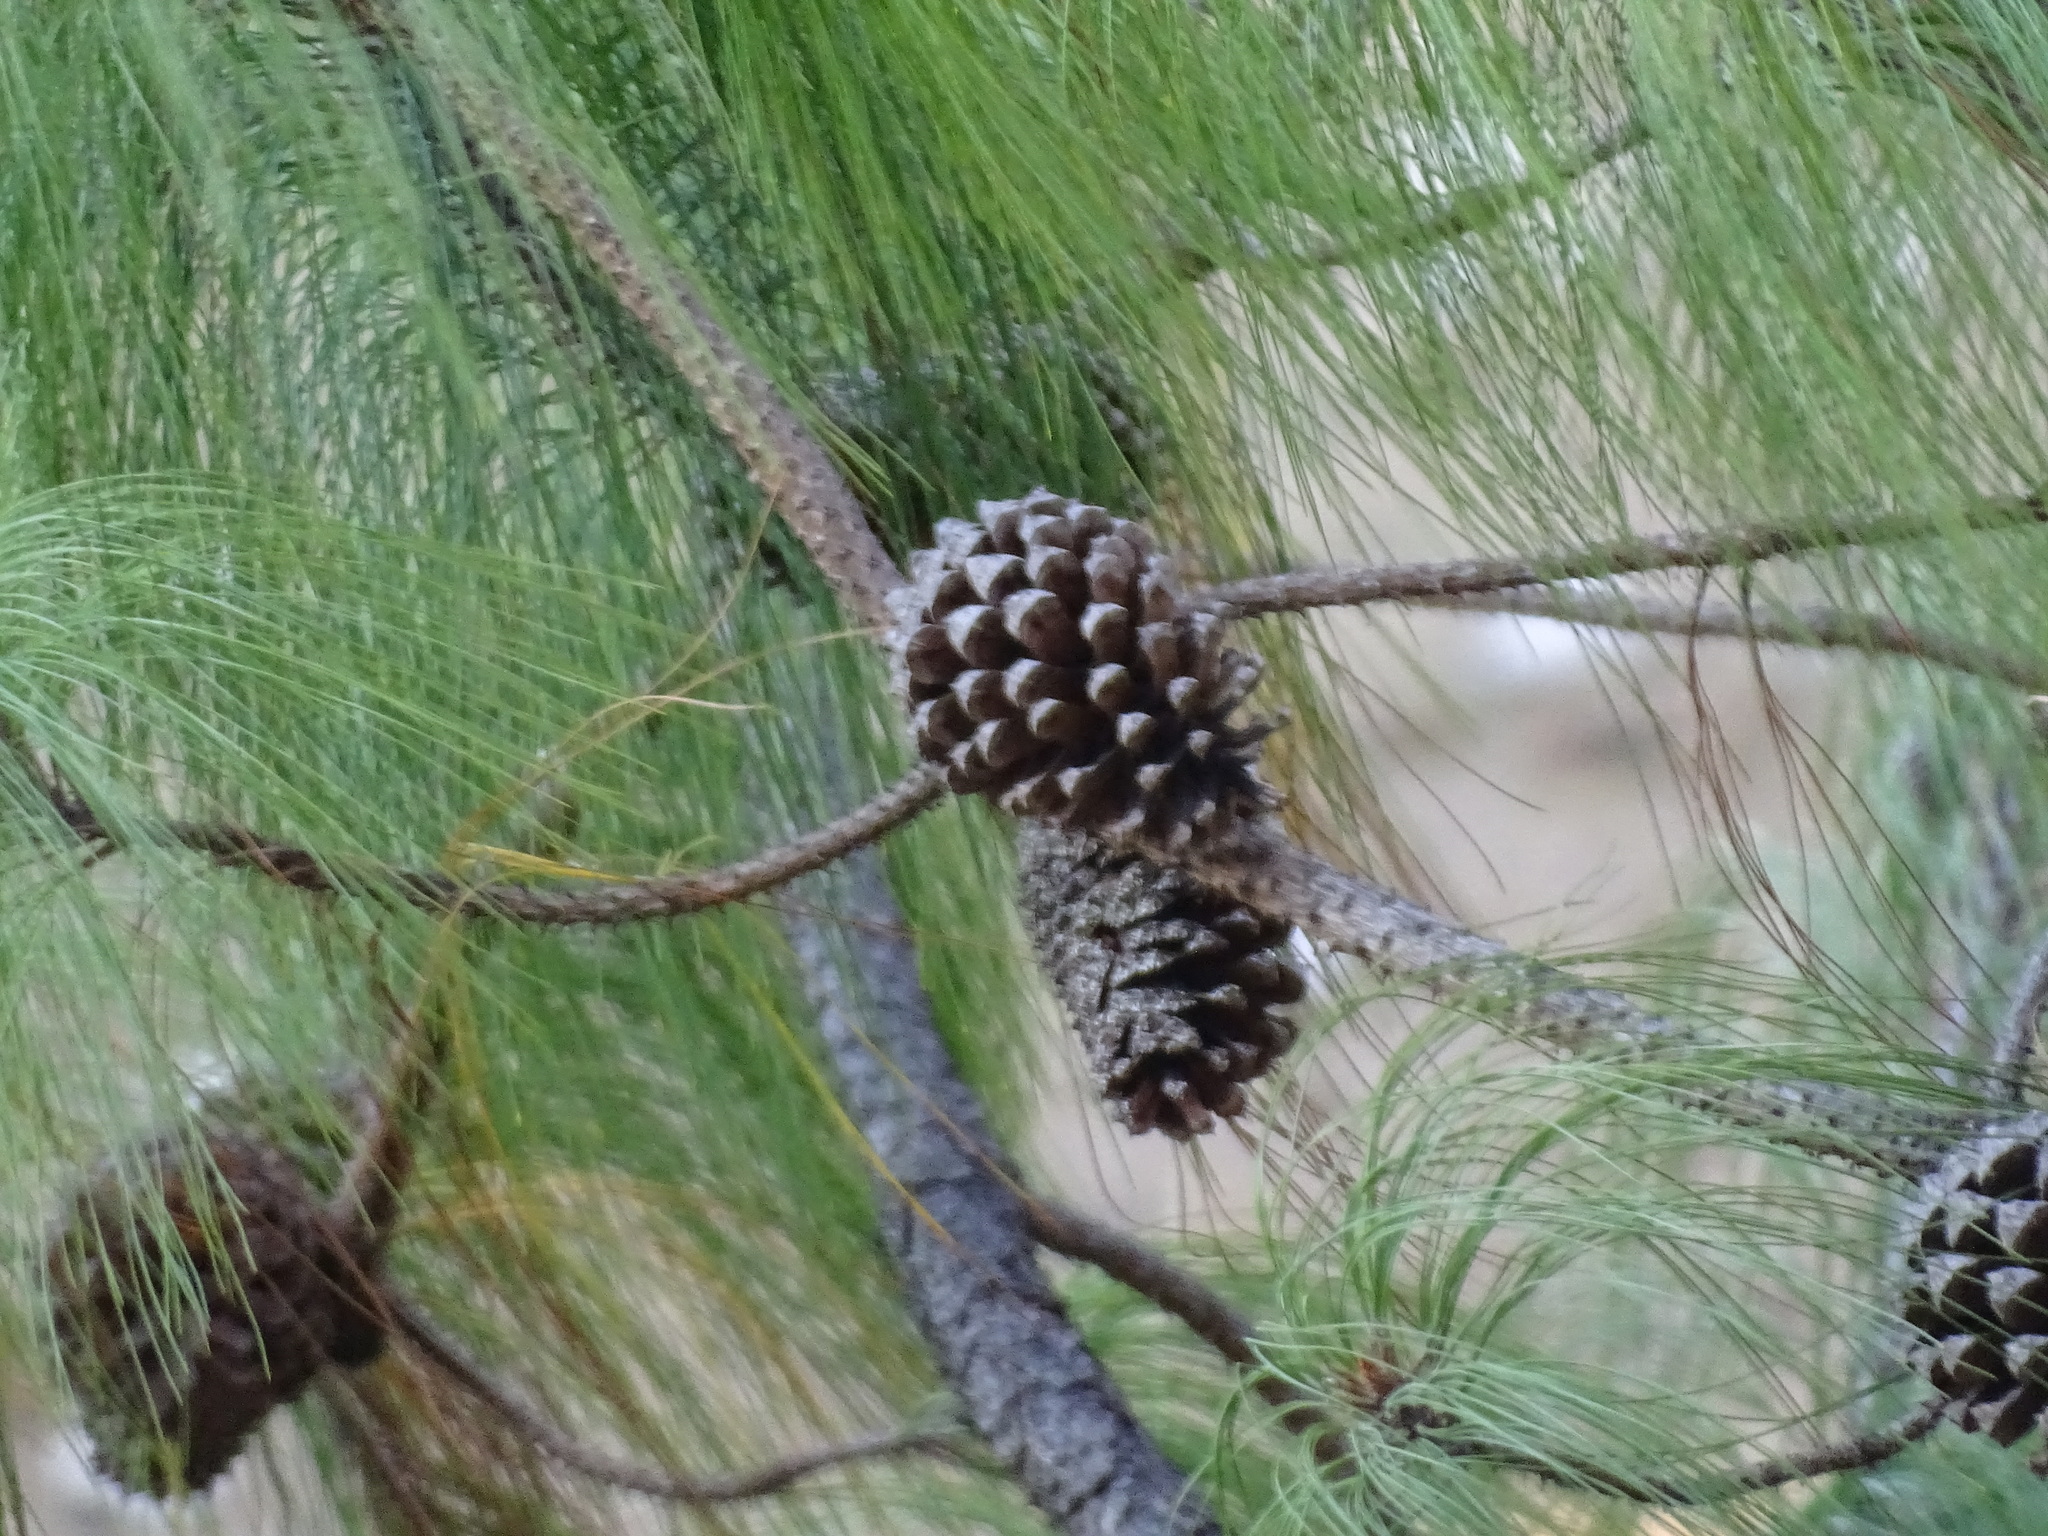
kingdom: Plantae
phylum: Tracheophyta
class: Pinopsida
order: Pinales
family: Pinaceae
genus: Pinus
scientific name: Pinus pseudostrobus
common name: False weymouth pine
